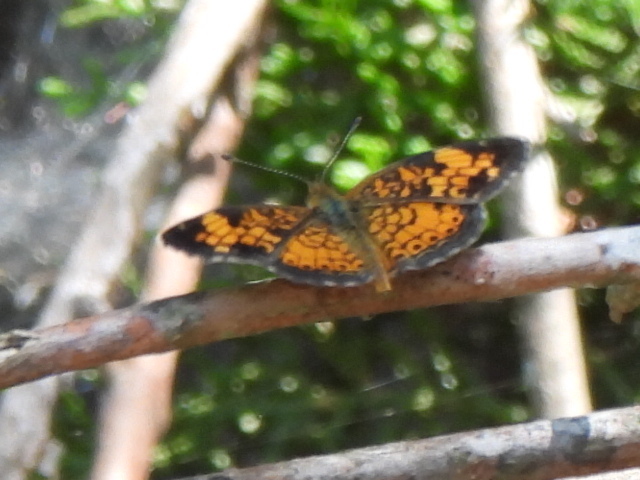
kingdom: Animalia
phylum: Arthropoda
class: Insecta
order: Lepidoptera
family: Nymphalidae
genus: Phyciodes
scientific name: Phyciodes tharos
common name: Pearl crescent
